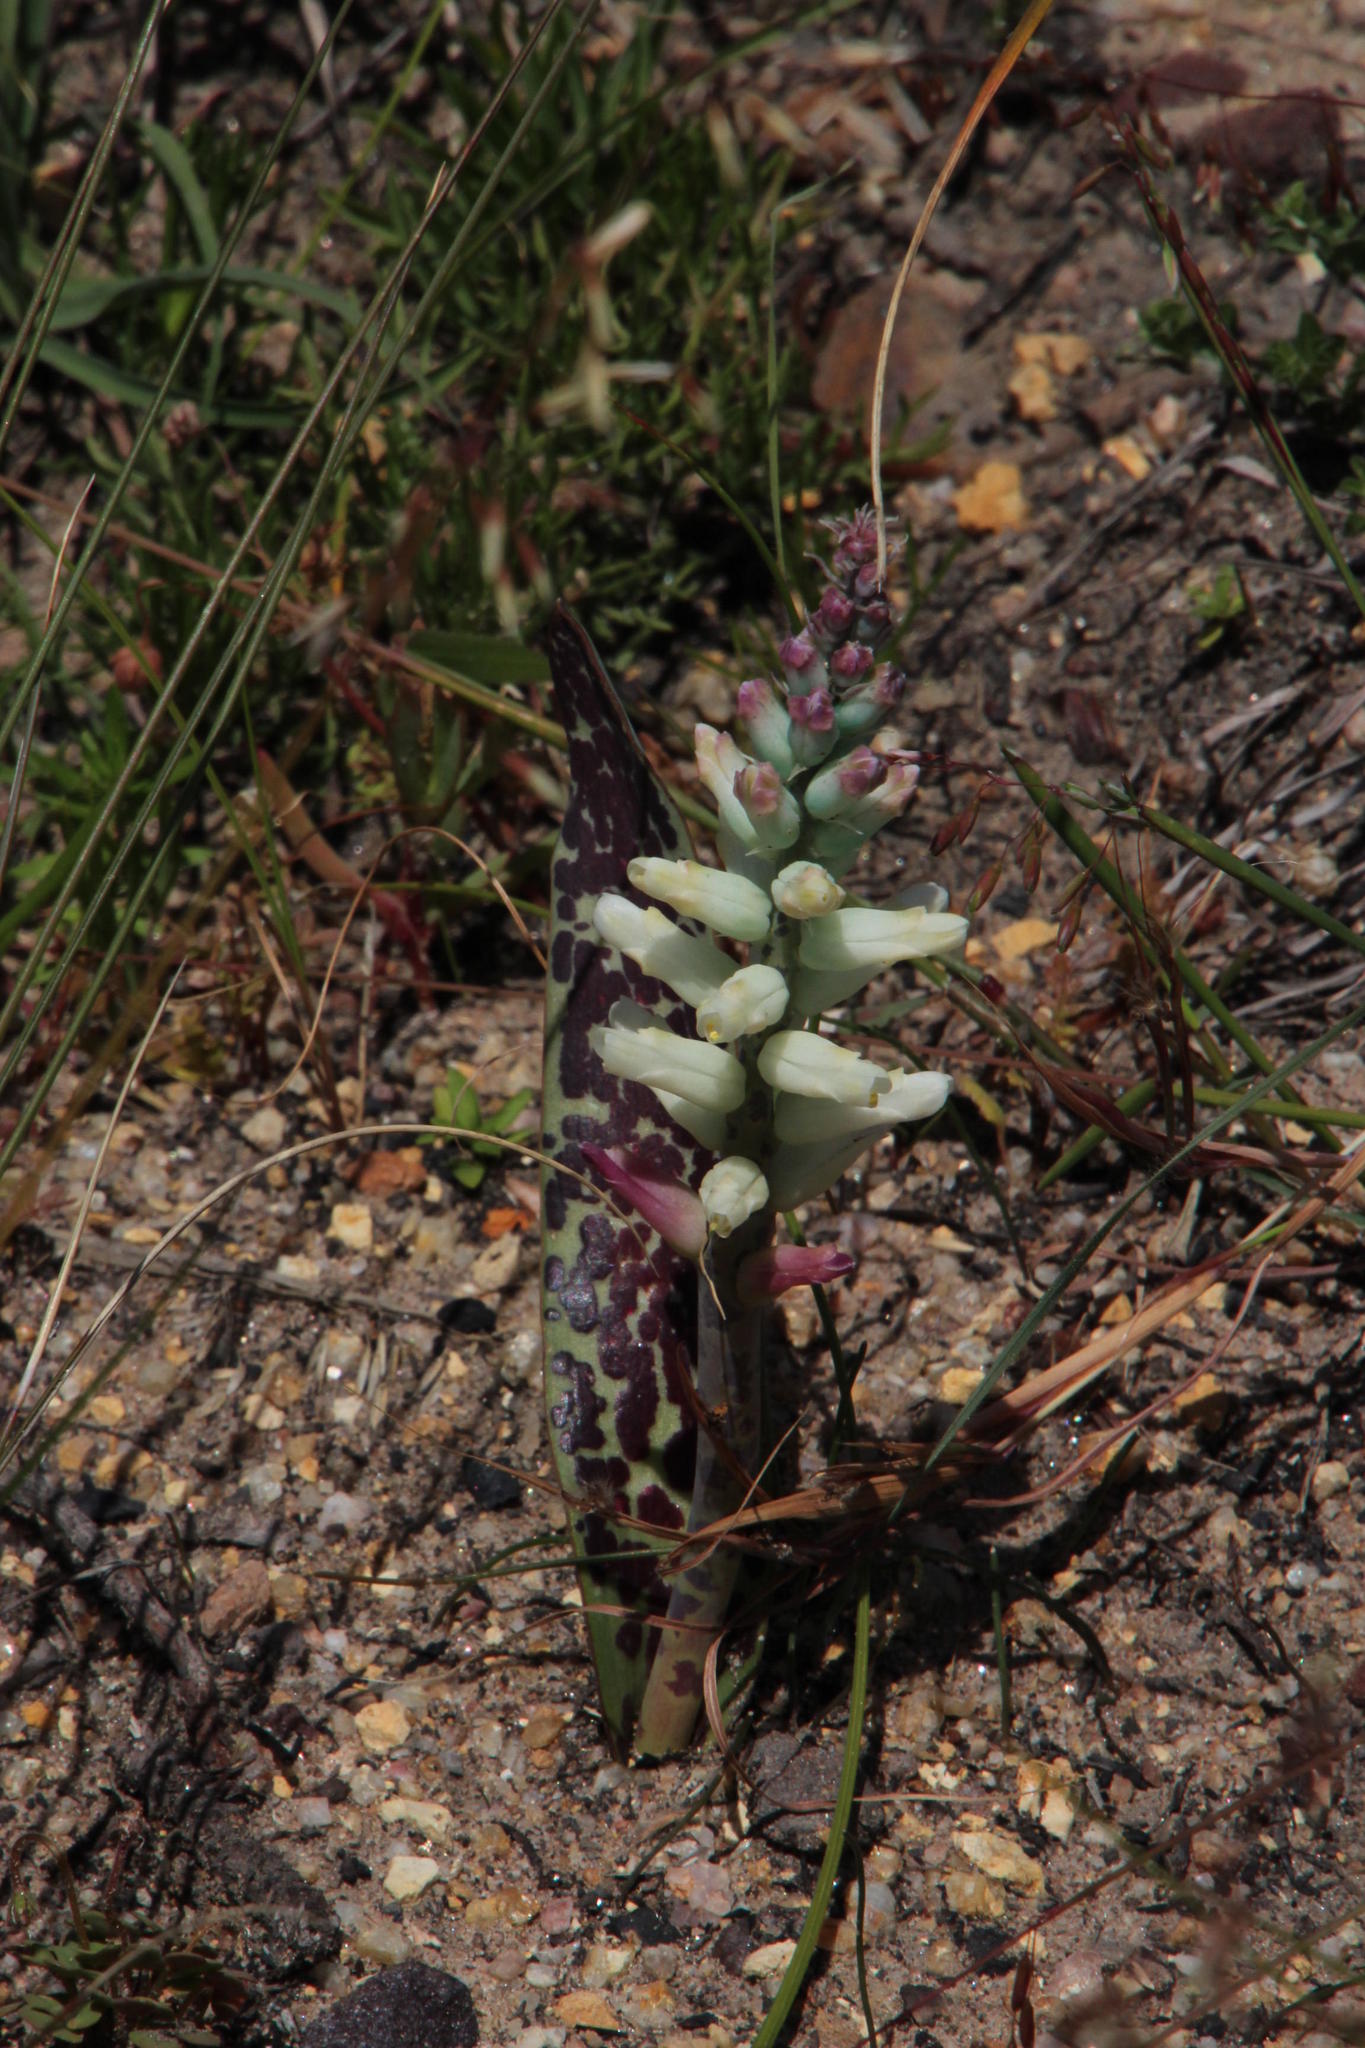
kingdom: Plantae
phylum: Tracheophyta
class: Liliopsida
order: Asparagales
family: Asparagaceae
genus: Lachenalia
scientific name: Lachenalia capensis
